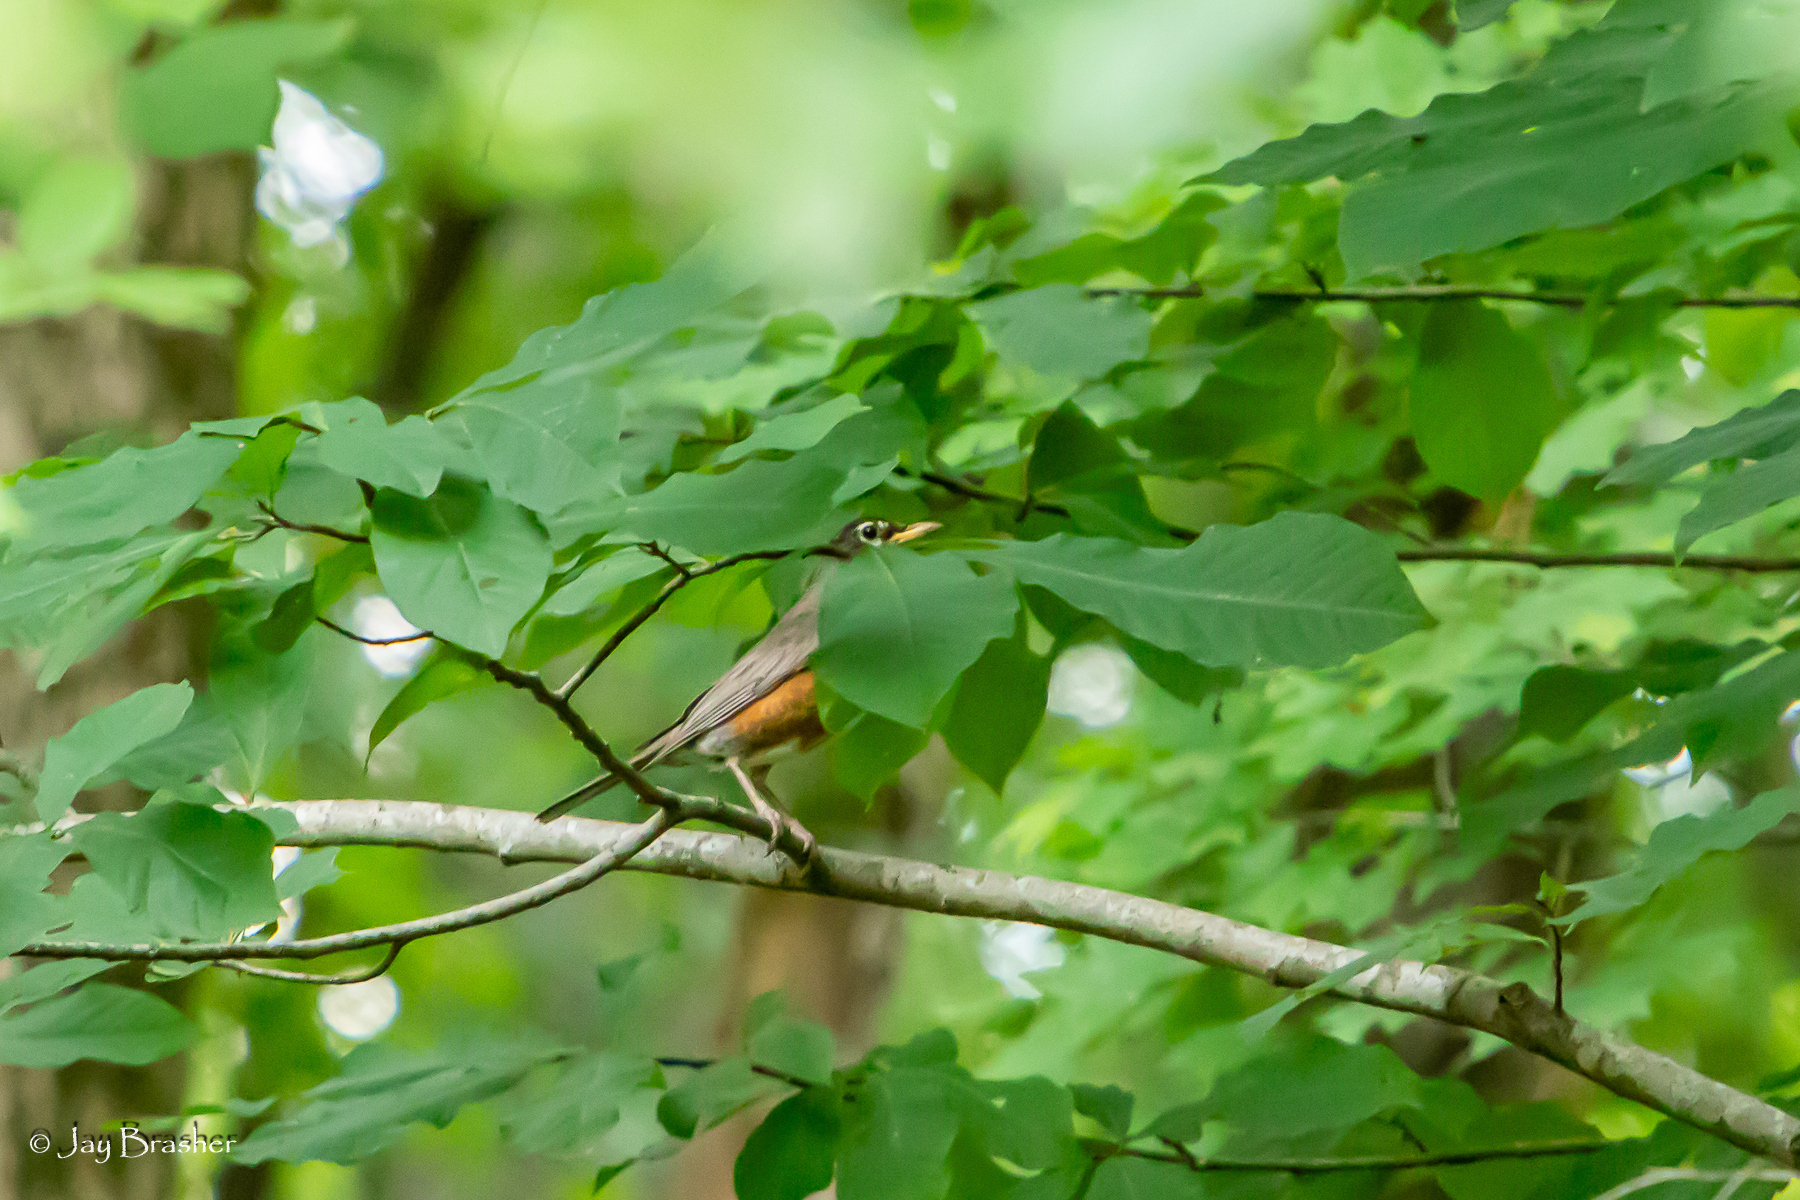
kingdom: Animalia
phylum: Chordata
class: Aves
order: Passeriformes
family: Turdidae
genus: Turdus
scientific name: Turdus migratorius
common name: American robin
